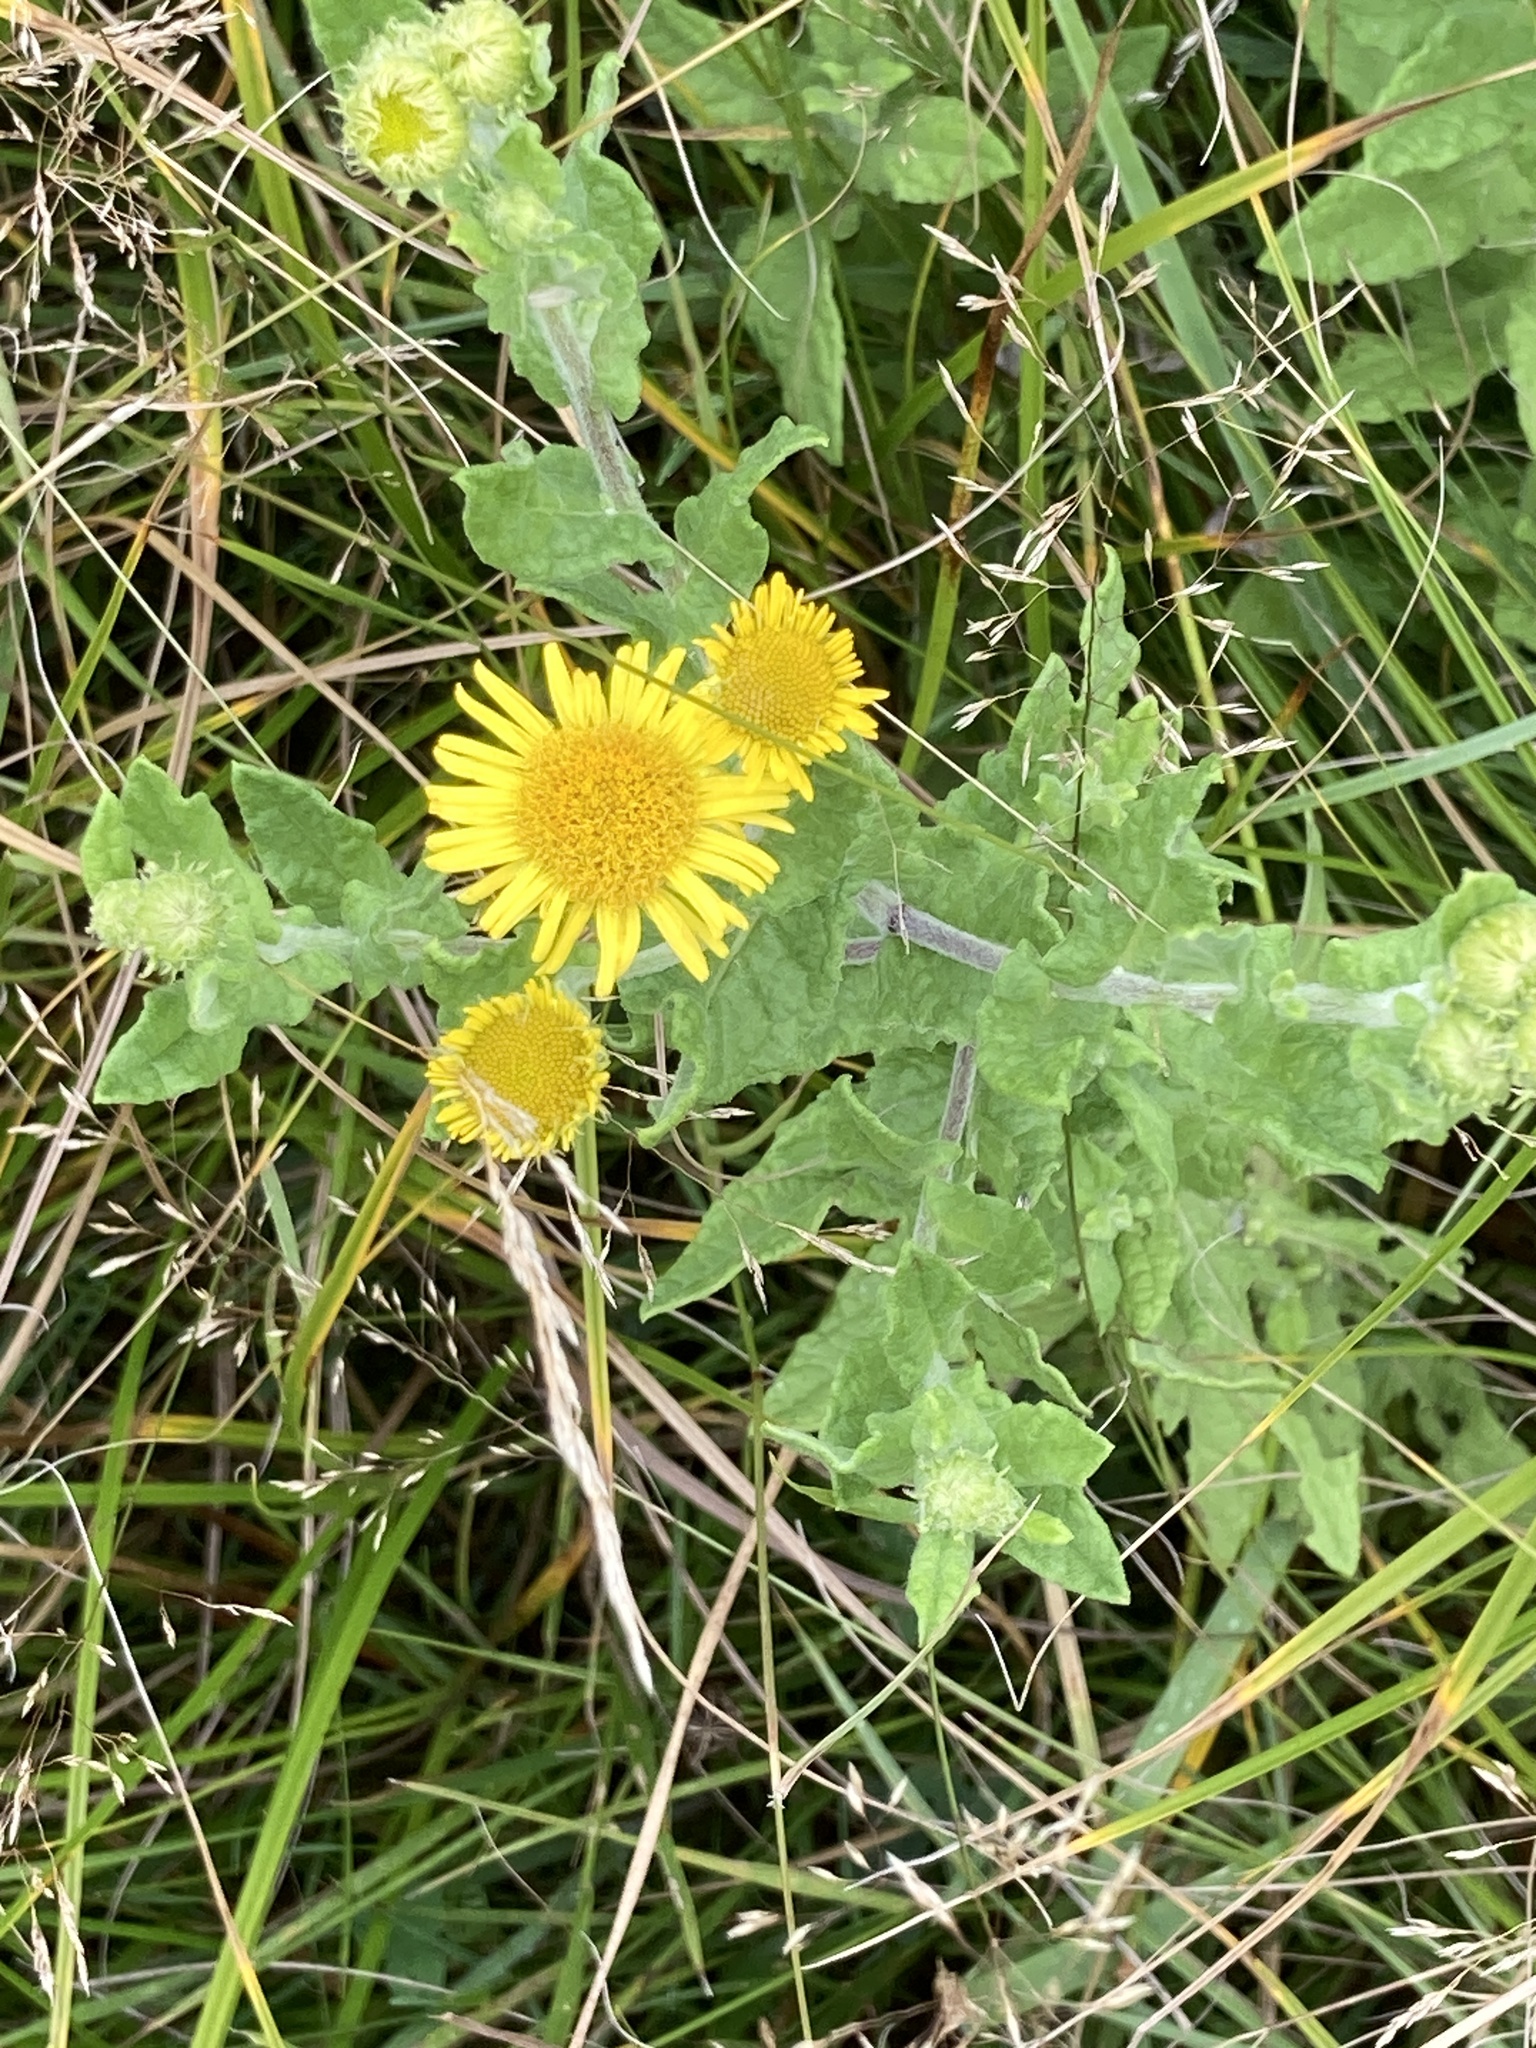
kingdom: Plantae
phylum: Tracheophyta
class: Magnoliopsida
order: Asterales
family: Asteraceae
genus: Pulicaria
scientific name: Pulicaria dysenterica
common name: Common fleabane
